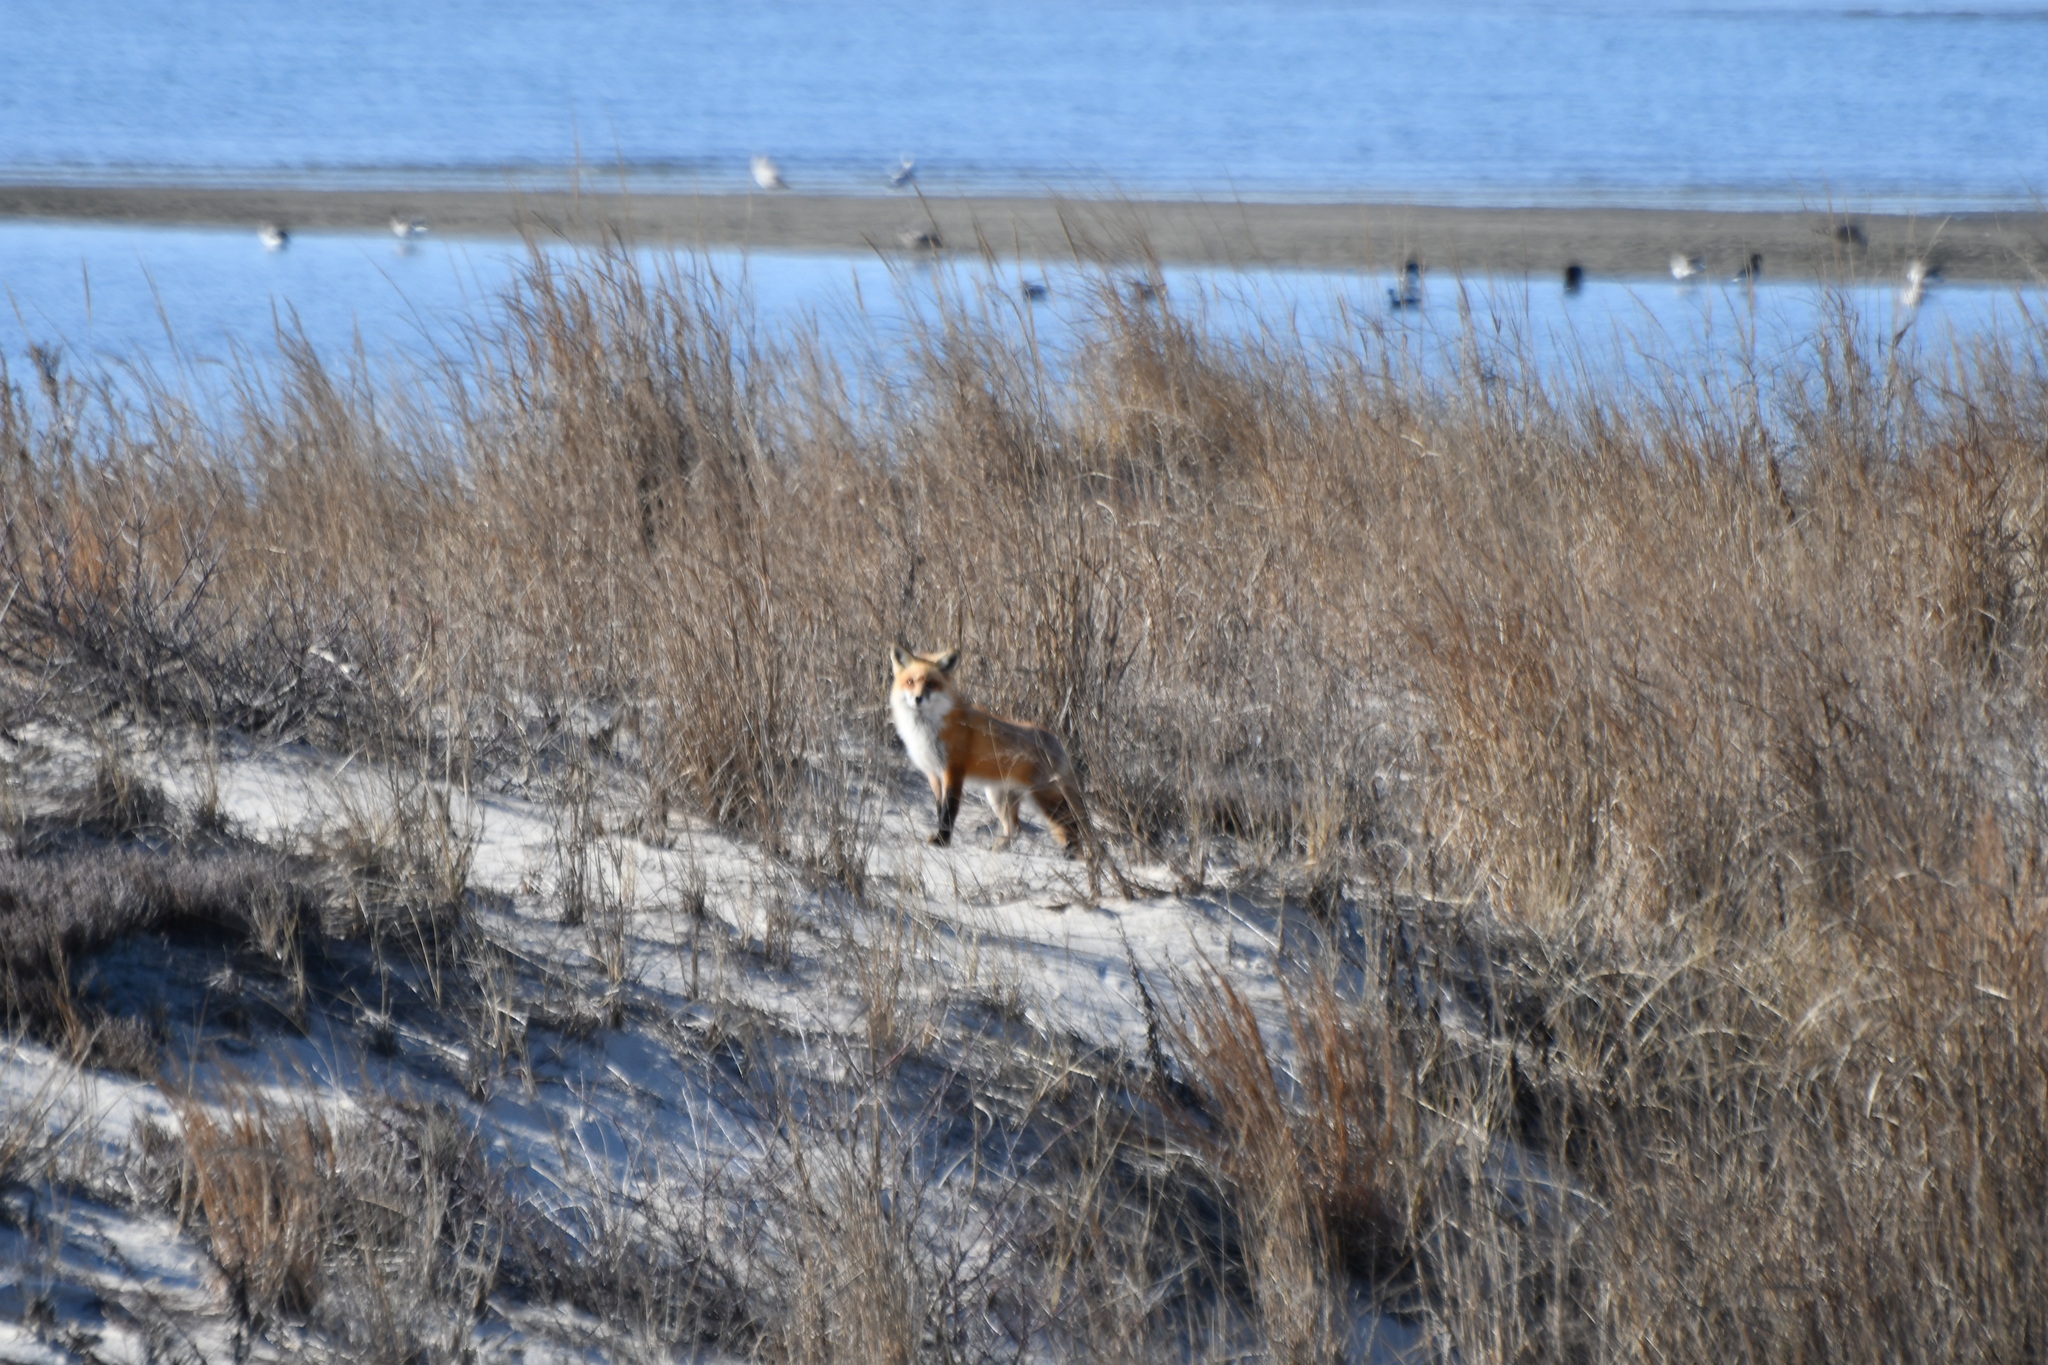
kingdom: Animalia
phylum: Chordata
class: Mammalia
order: Carnivora
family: Canidae
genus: Vulpes
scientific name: Vulpes vulpes
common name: Red fox
